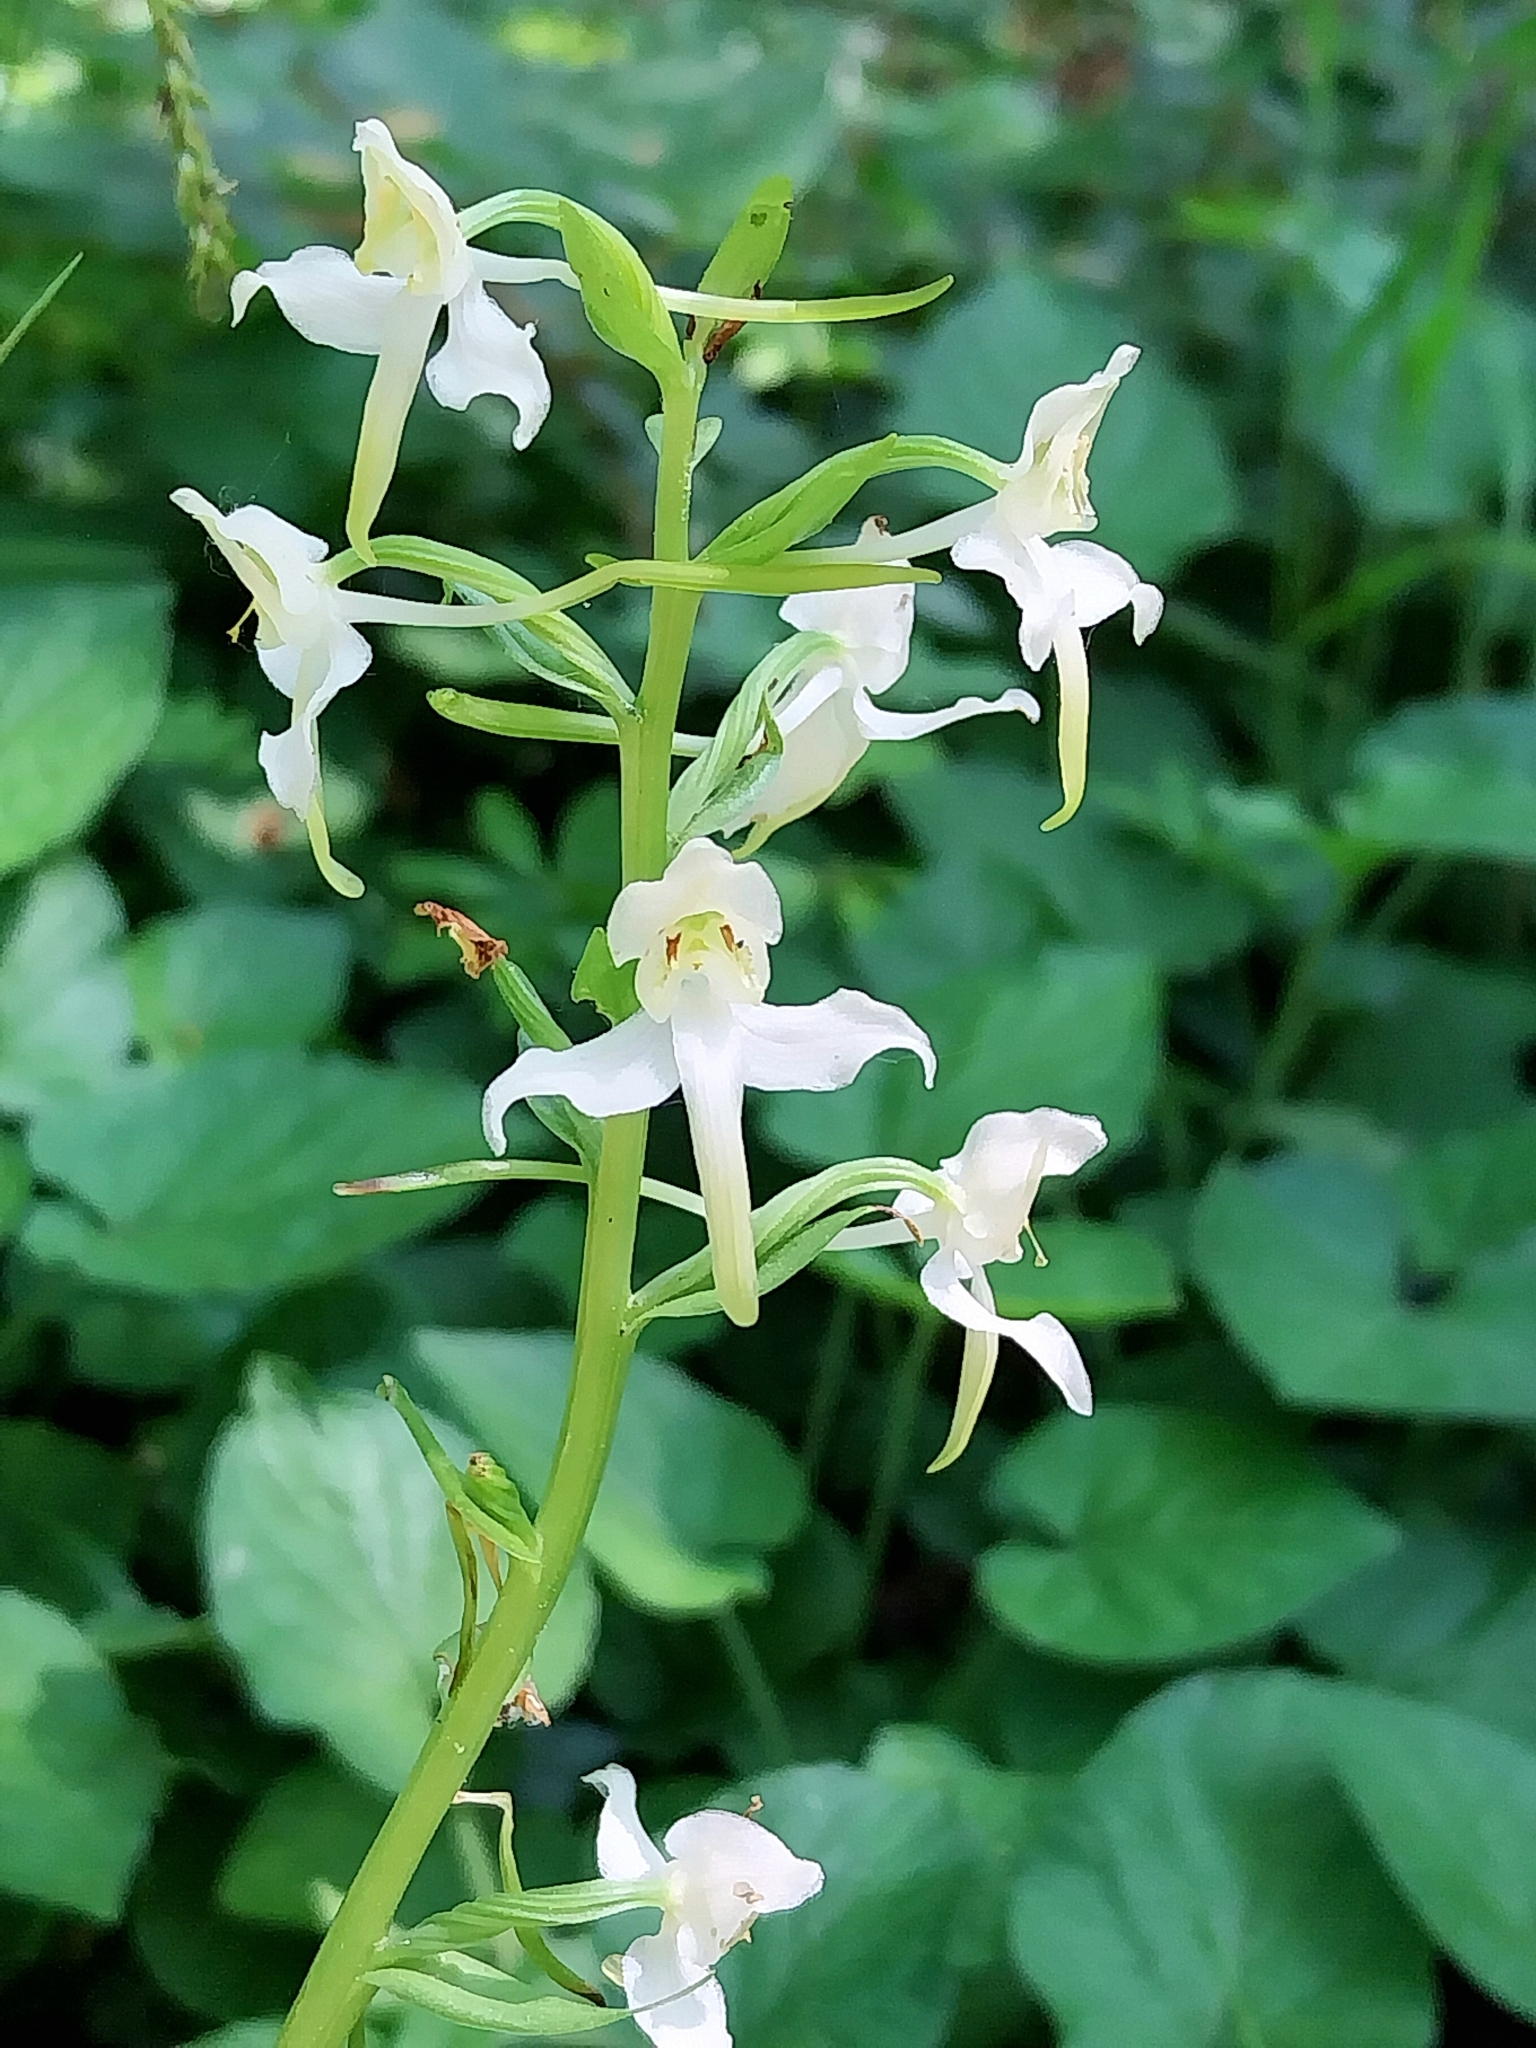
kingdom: Plantae
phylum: Tracheophyta
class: Liliopsida
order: Asparagales
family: Orchidaceae
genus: Platanthera
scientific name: Platanthera chlorantha
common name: Greater butterfly-orchid
